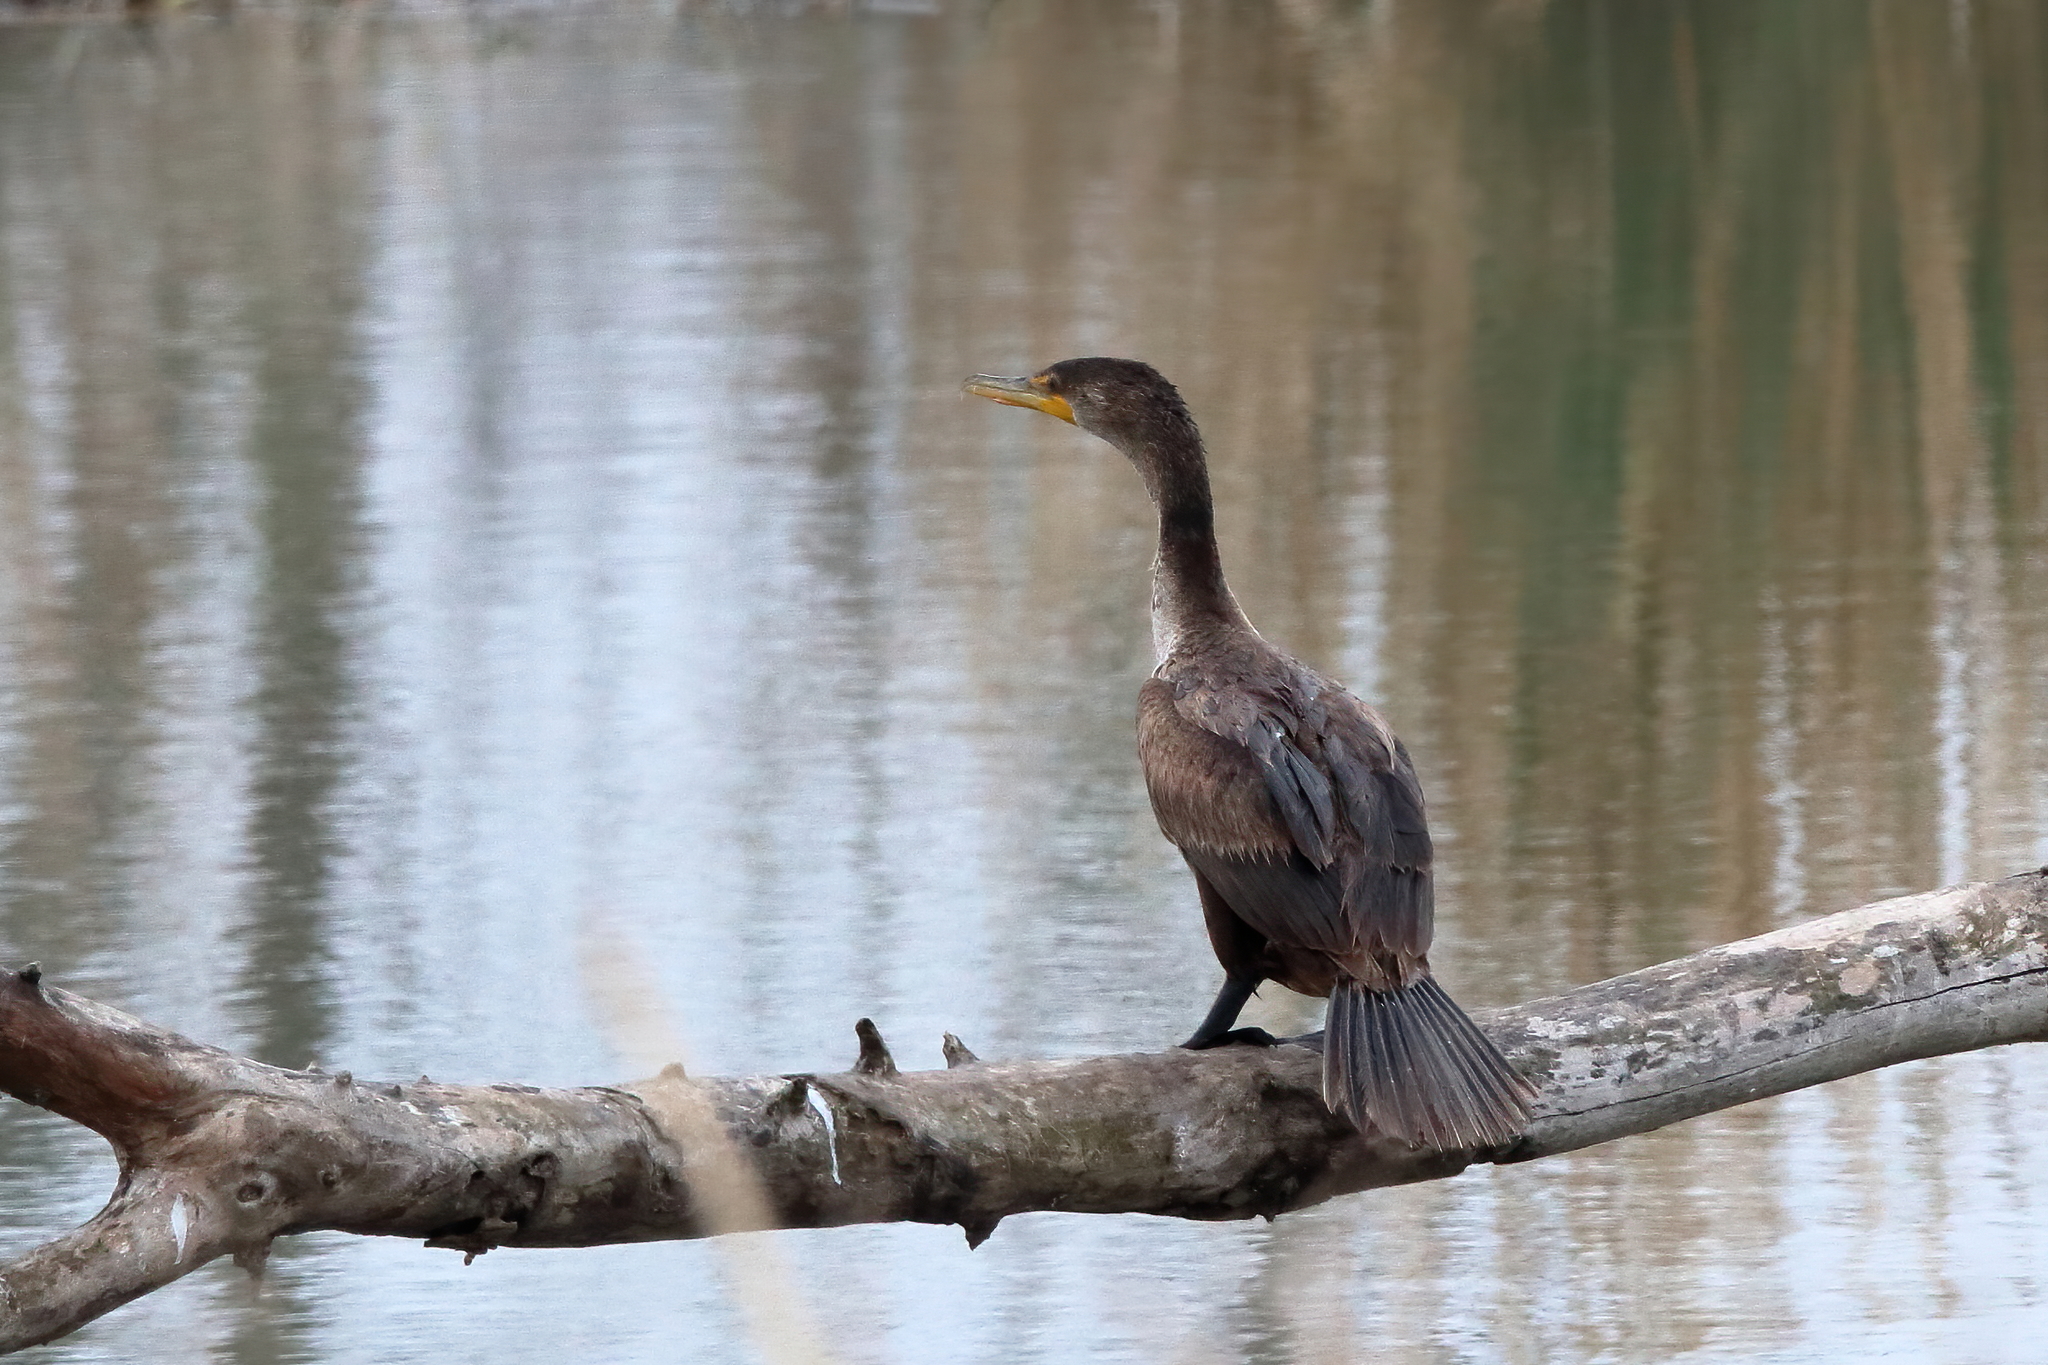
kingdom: Animalia
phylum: Chordata
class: Aves
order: Suliformes
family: Phalacrocoracidae
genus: Phalacrocorax
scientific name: Phalacrocorax auritus
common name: Double-crested cormorant
